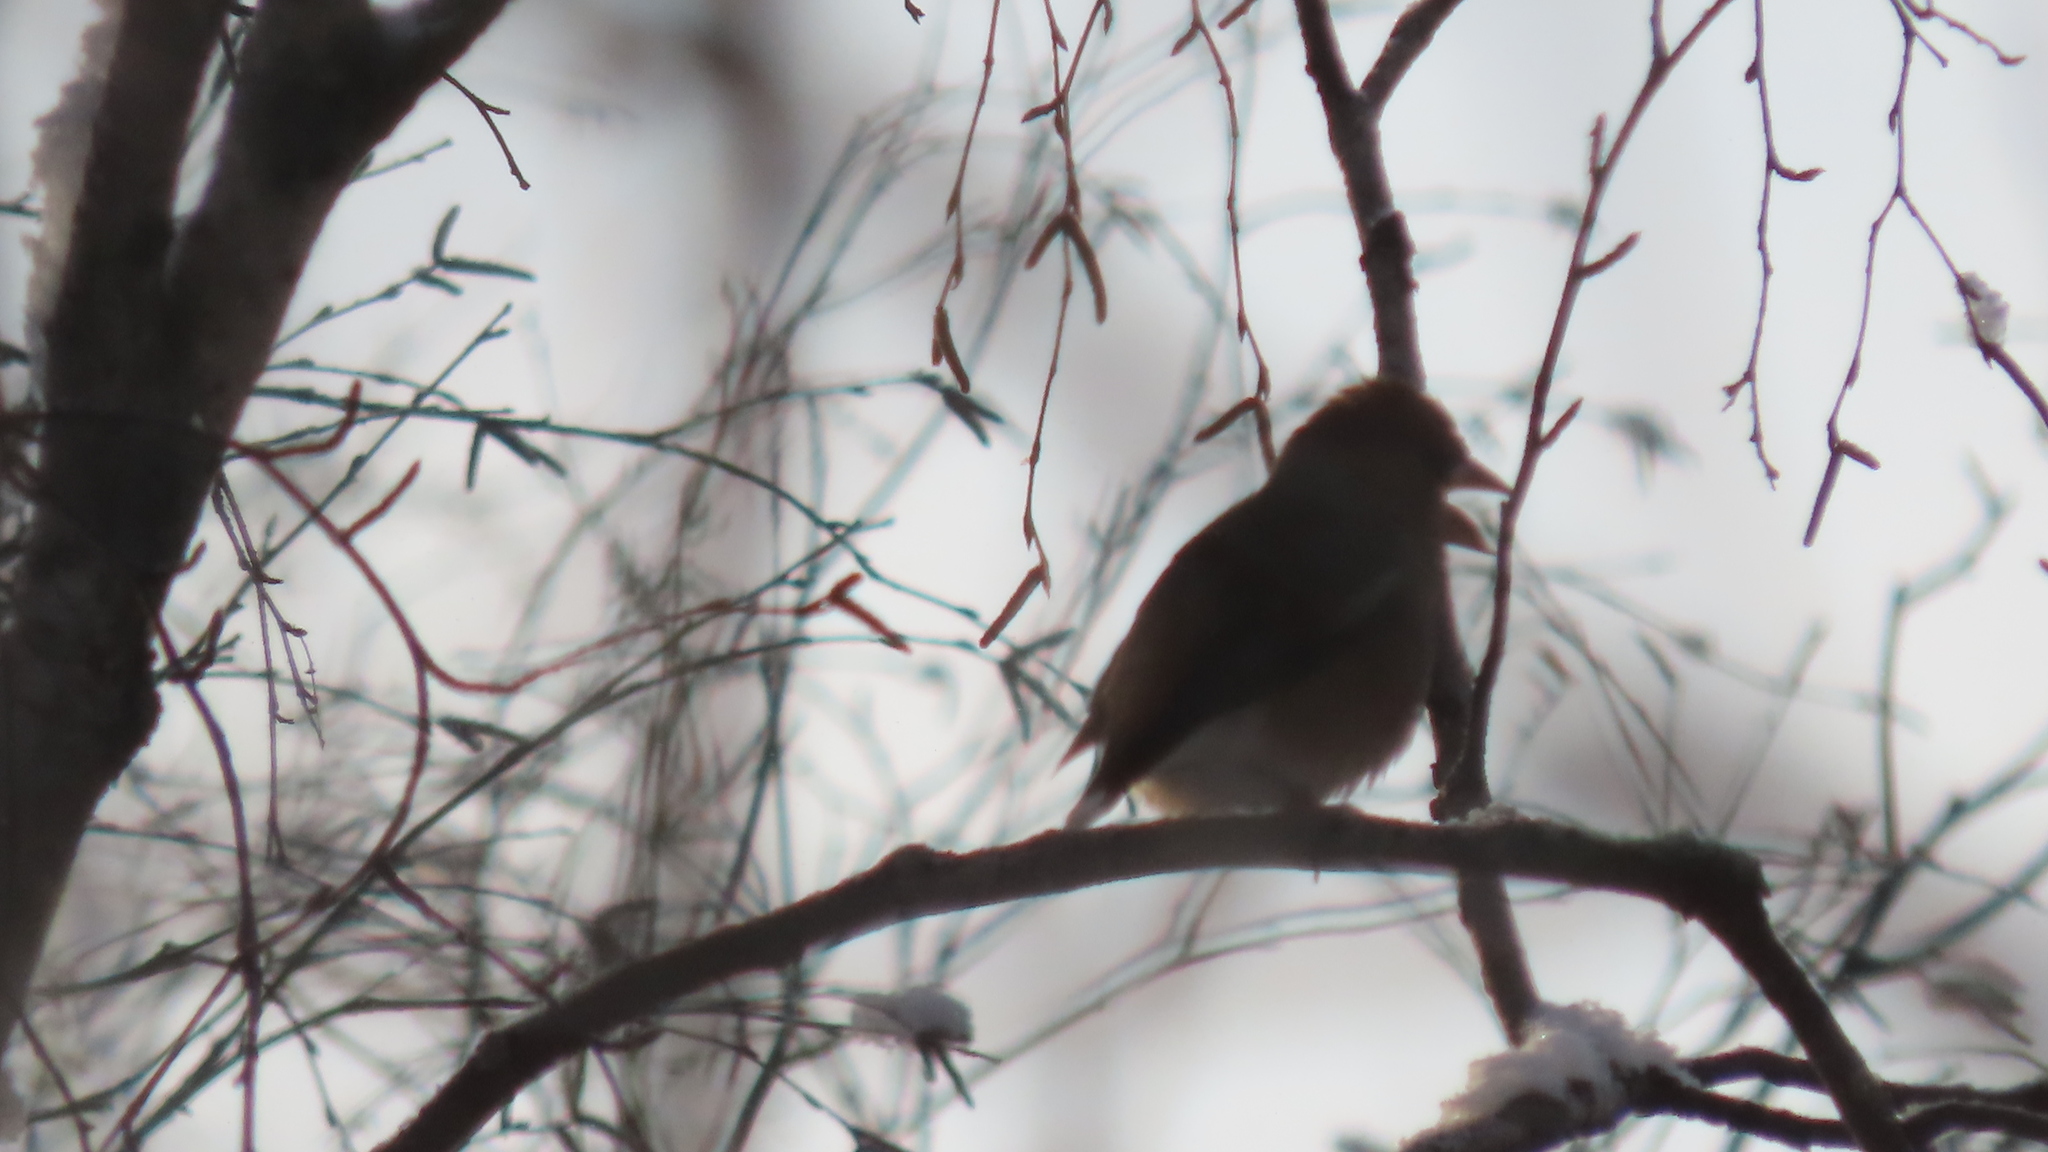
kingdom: Animalia
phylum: Chordata
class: Aves
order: Passeriformes
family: Fringillidae
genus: Coccothraustes
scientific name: Coccothraustes coccothraustes
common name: Hawfinch
